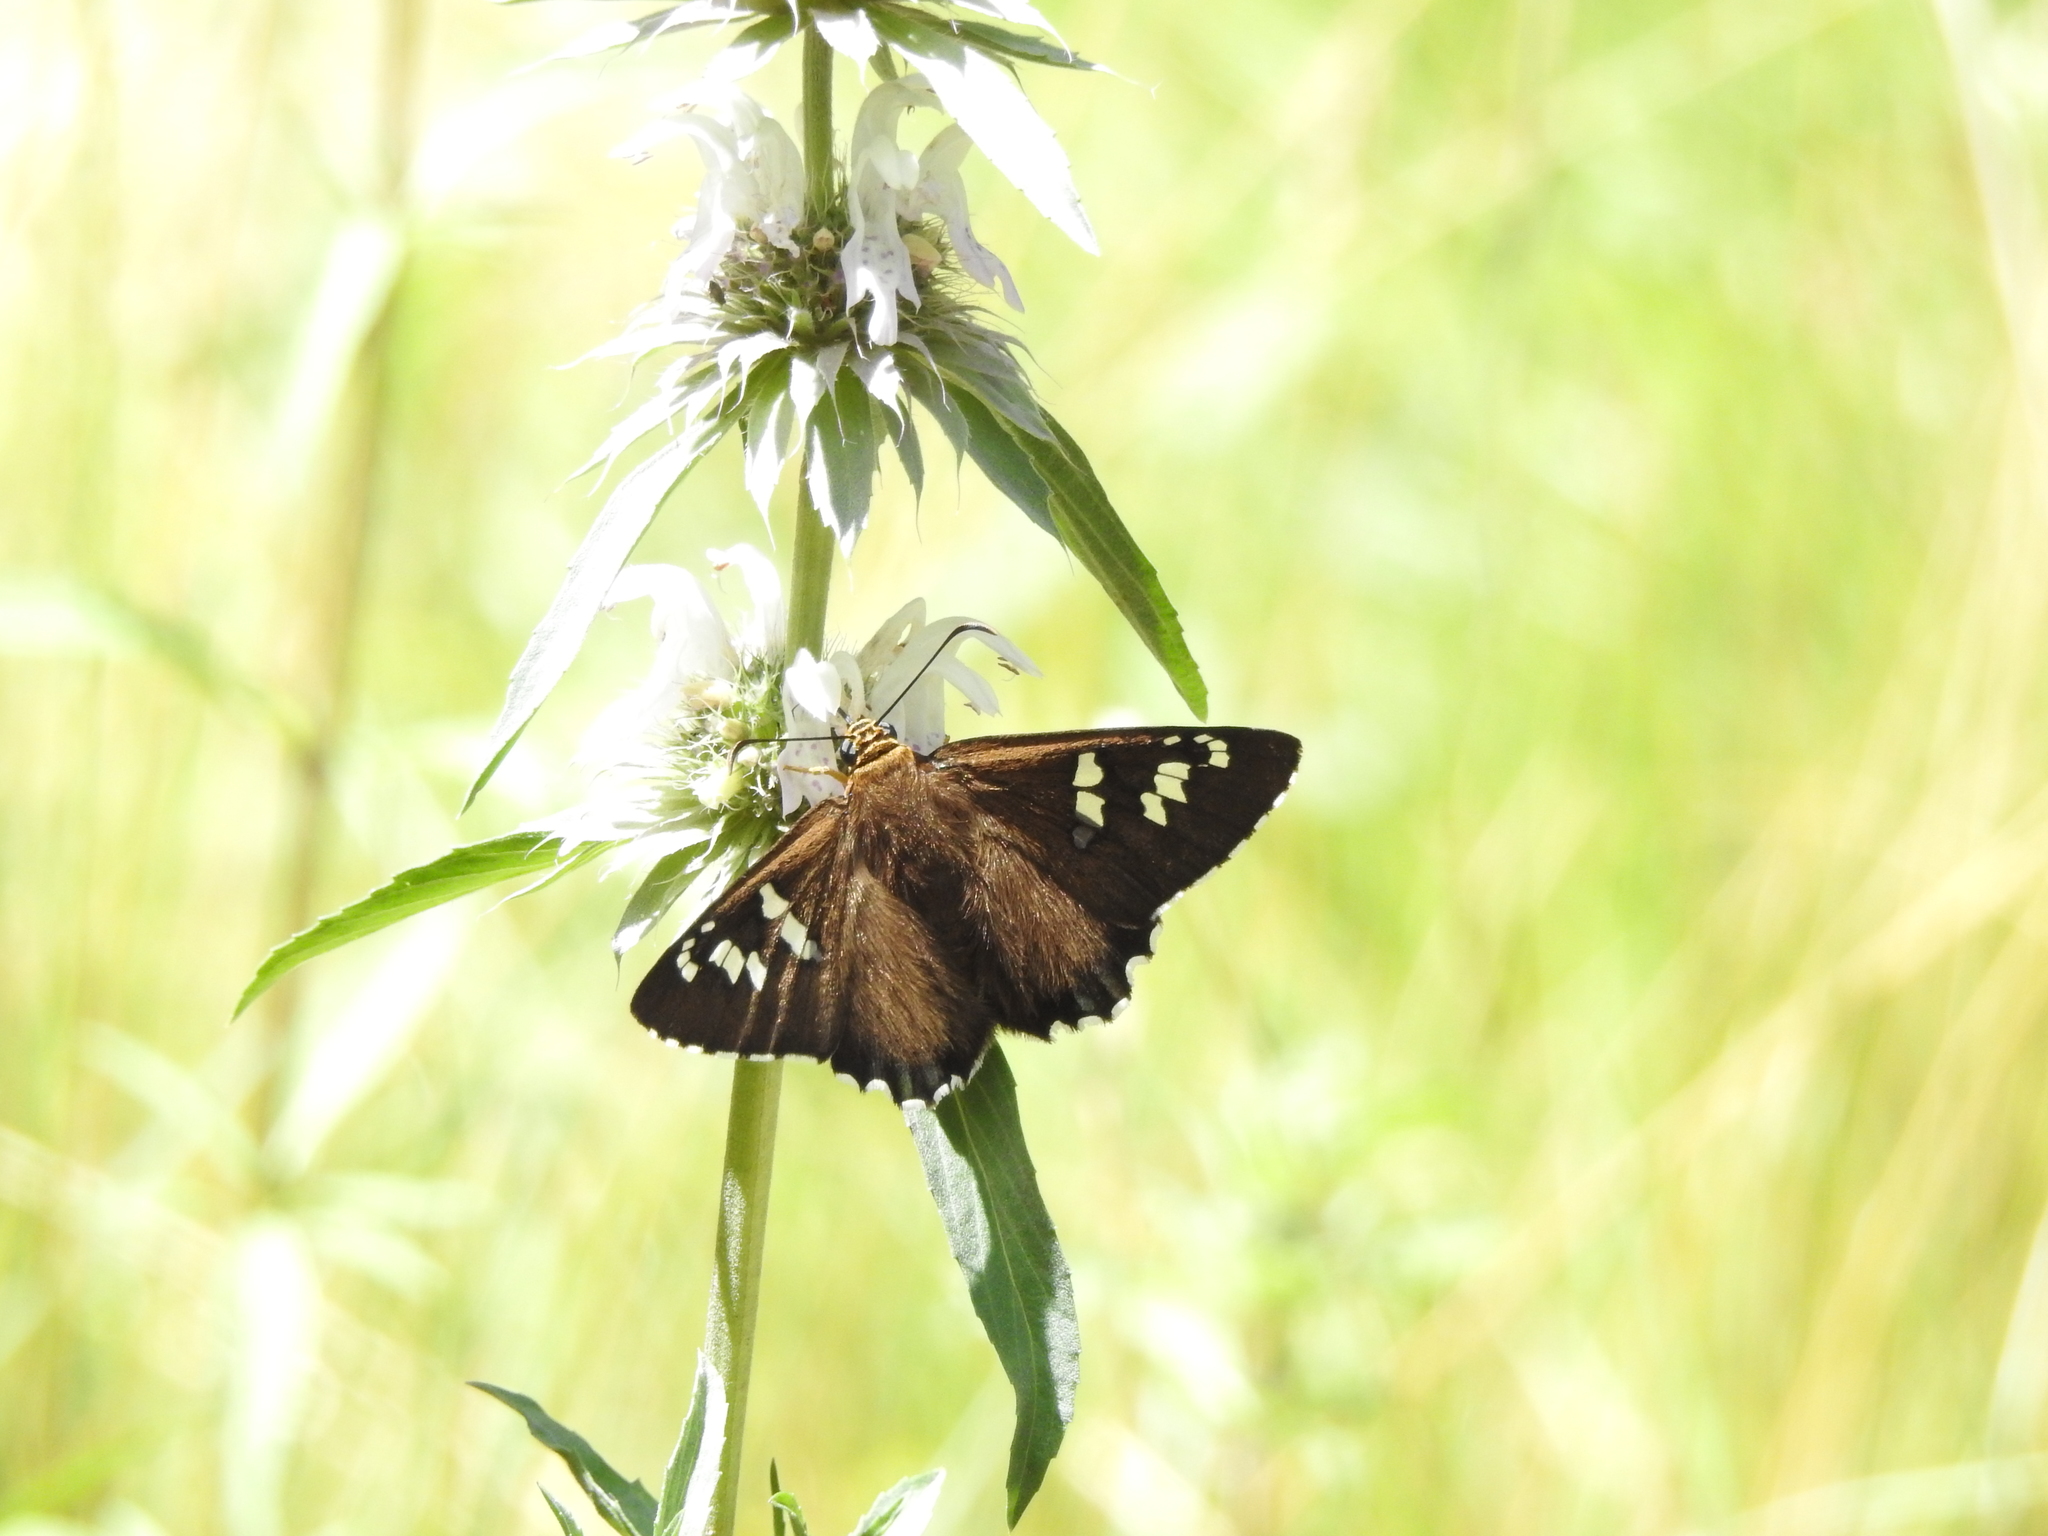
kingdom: Animalia
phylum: Arthropoda
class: Insecta
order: Lepidoptera
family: Hesperiidae
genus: Pyrrhopyge
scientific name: Pyrrhopyge araxes
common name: Dull firetip
